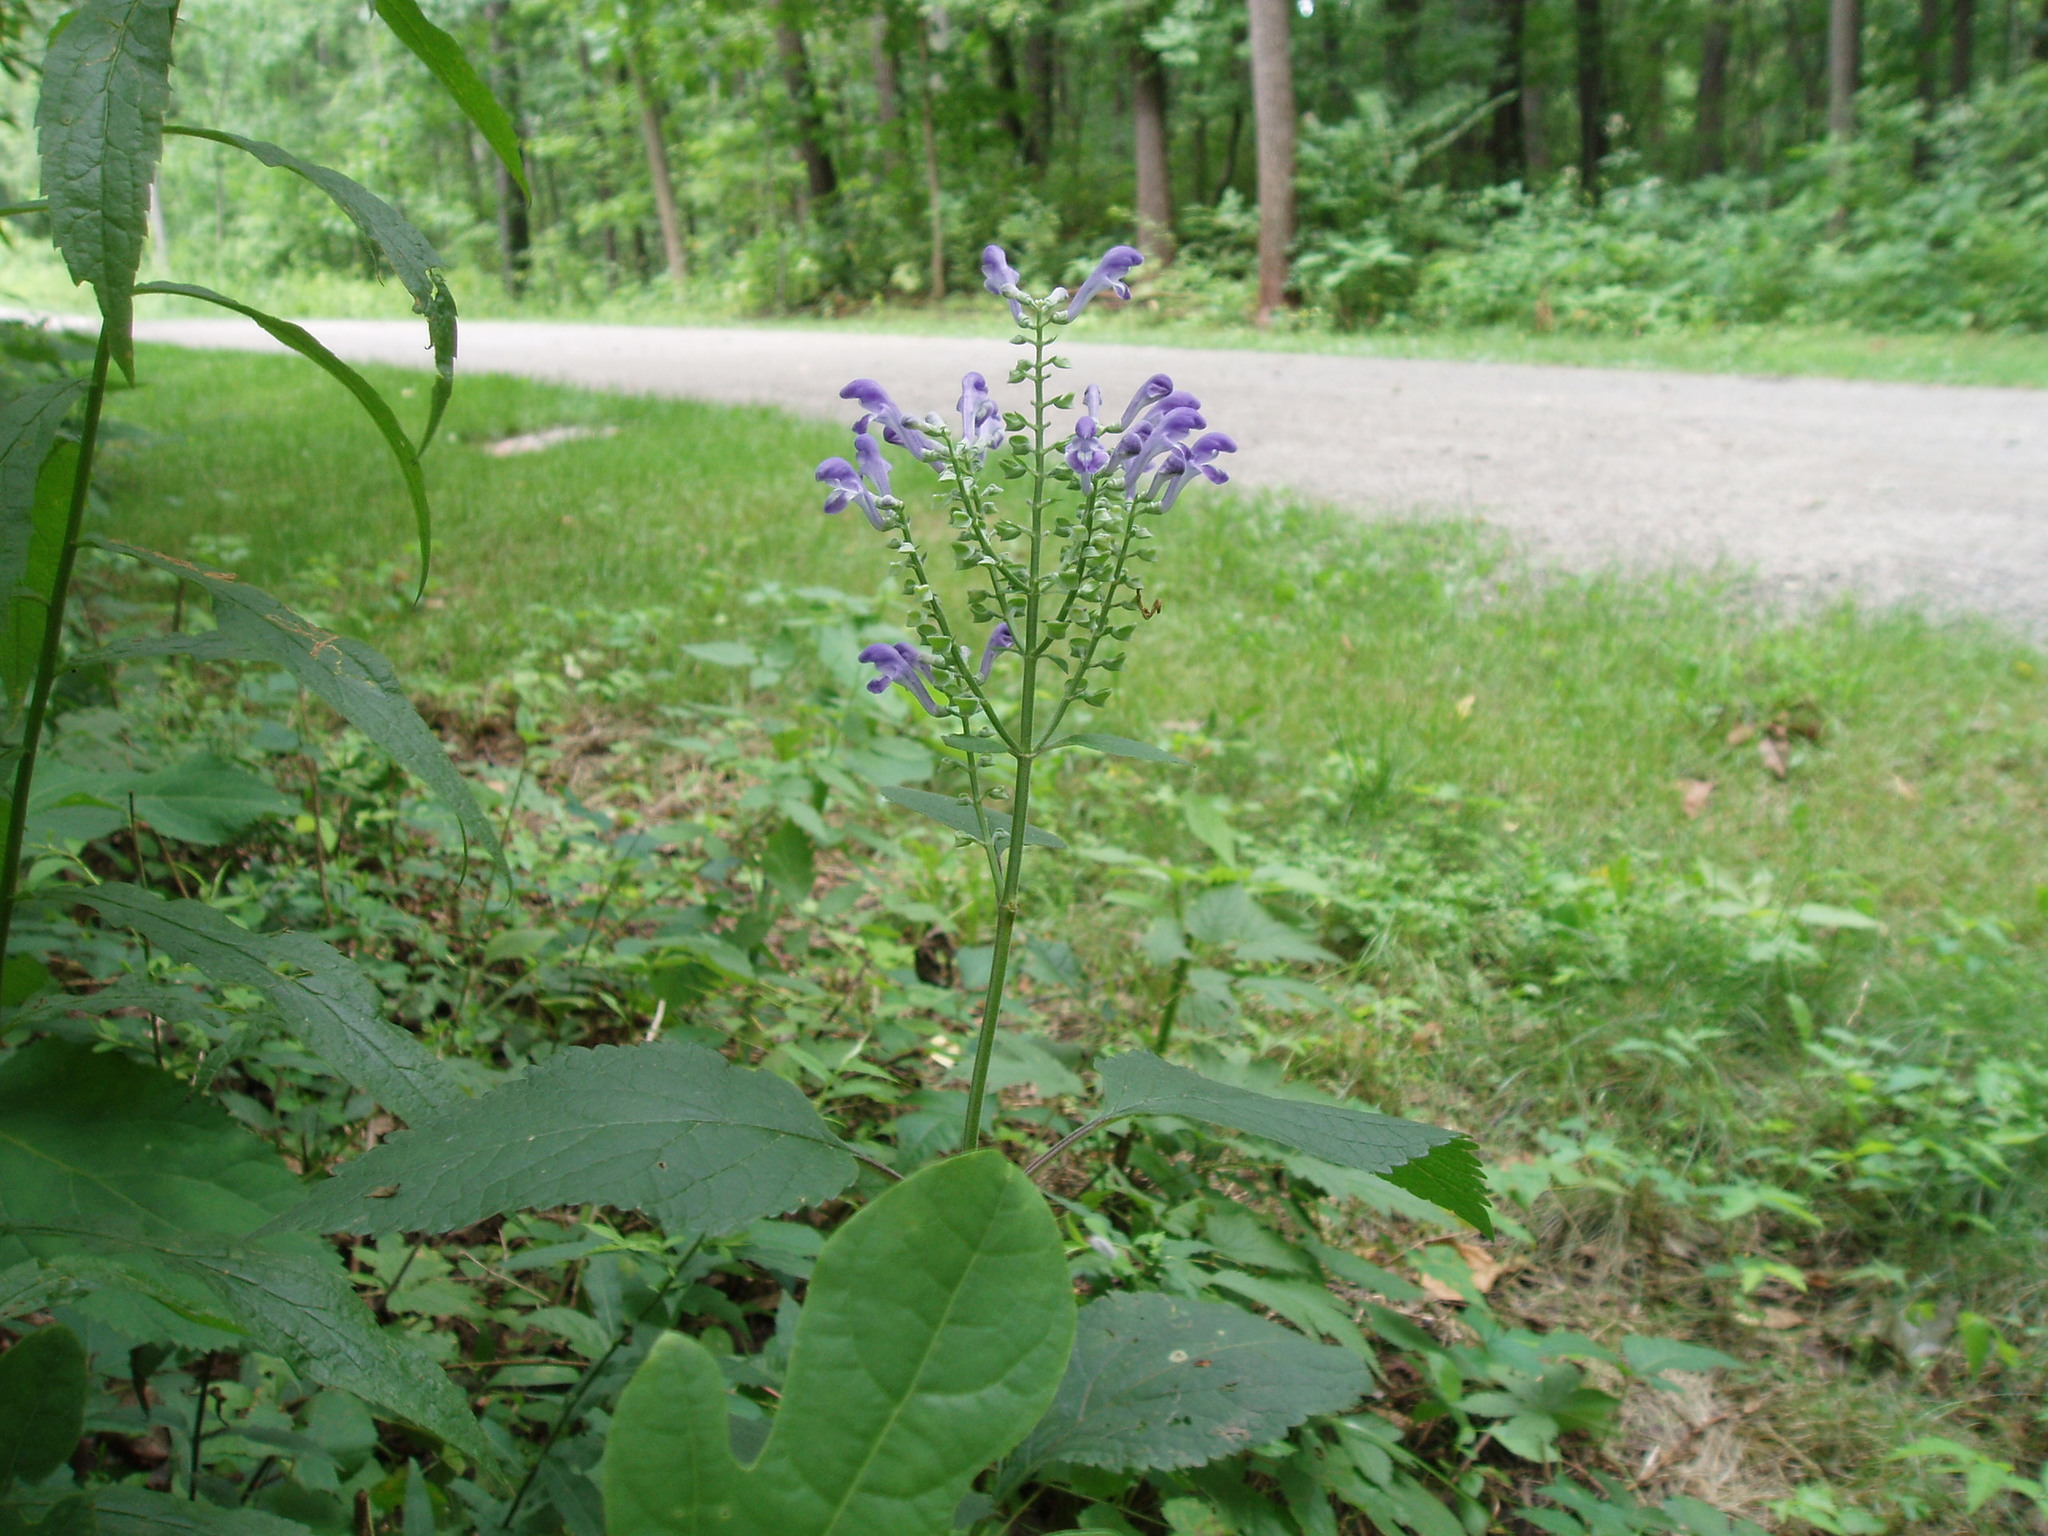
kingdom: Plantae
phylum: Tracheophyta
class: Magnoliopsida
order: Lamiales
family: Lamiaceae
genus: Scutellaria
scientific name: Scutellaria incana
